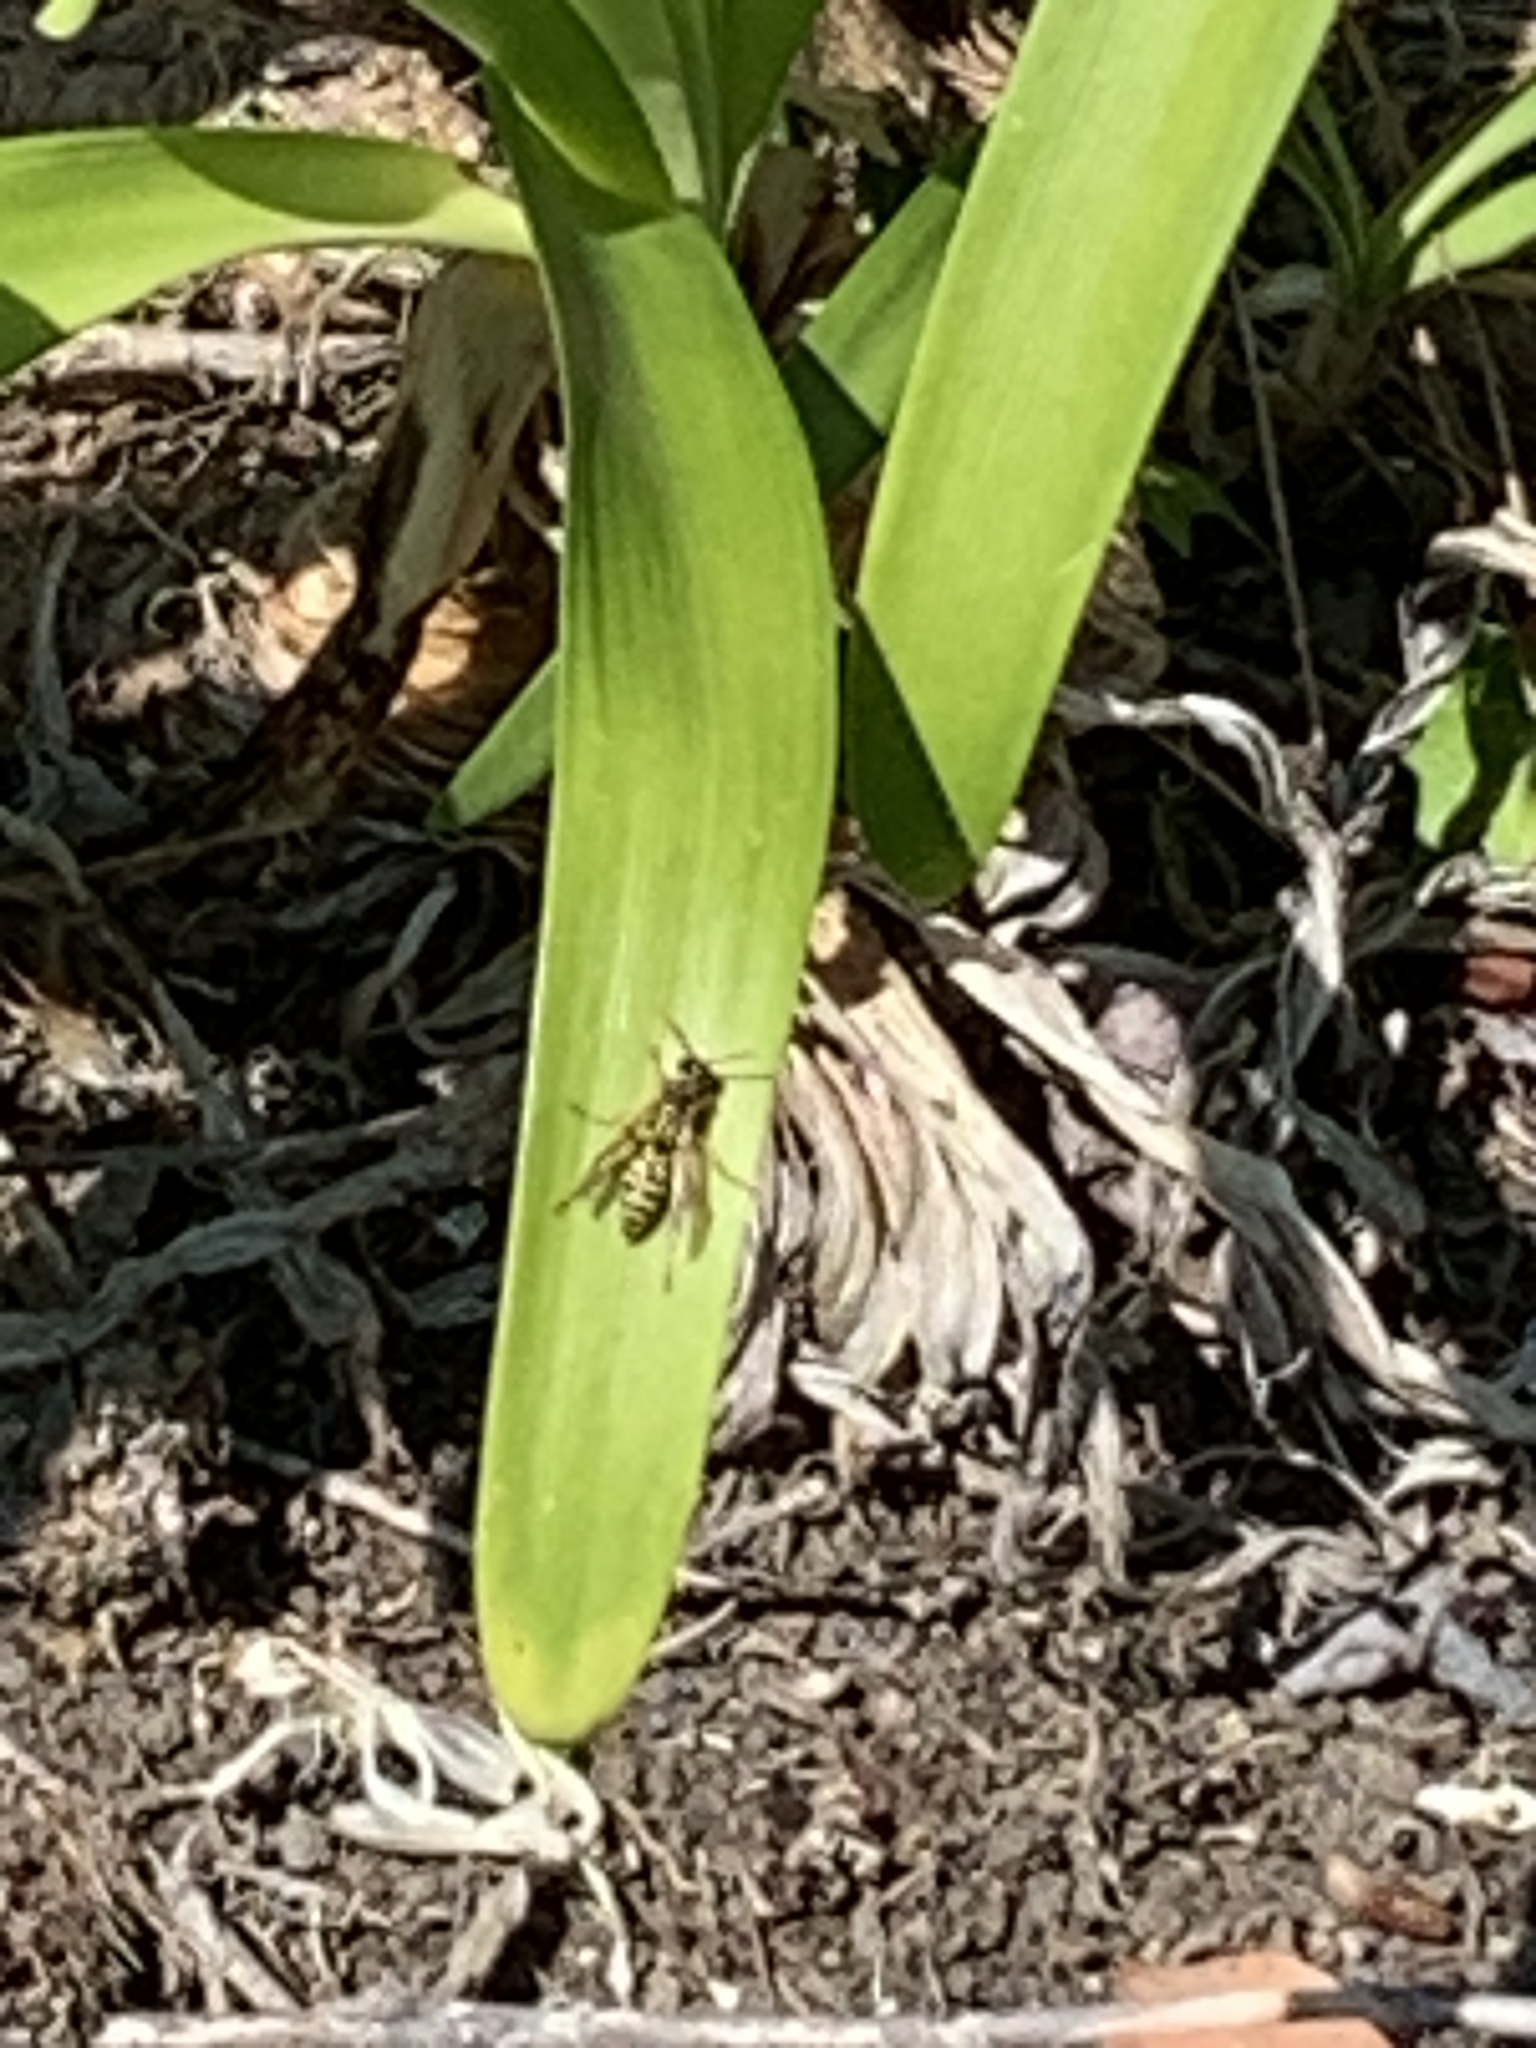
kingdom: Animalia
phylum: Arthropoda
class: Insecta
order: Hymenoptera
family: Eumenidae
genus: Polistes
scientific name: Polistes dominula
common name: Paper wasp
